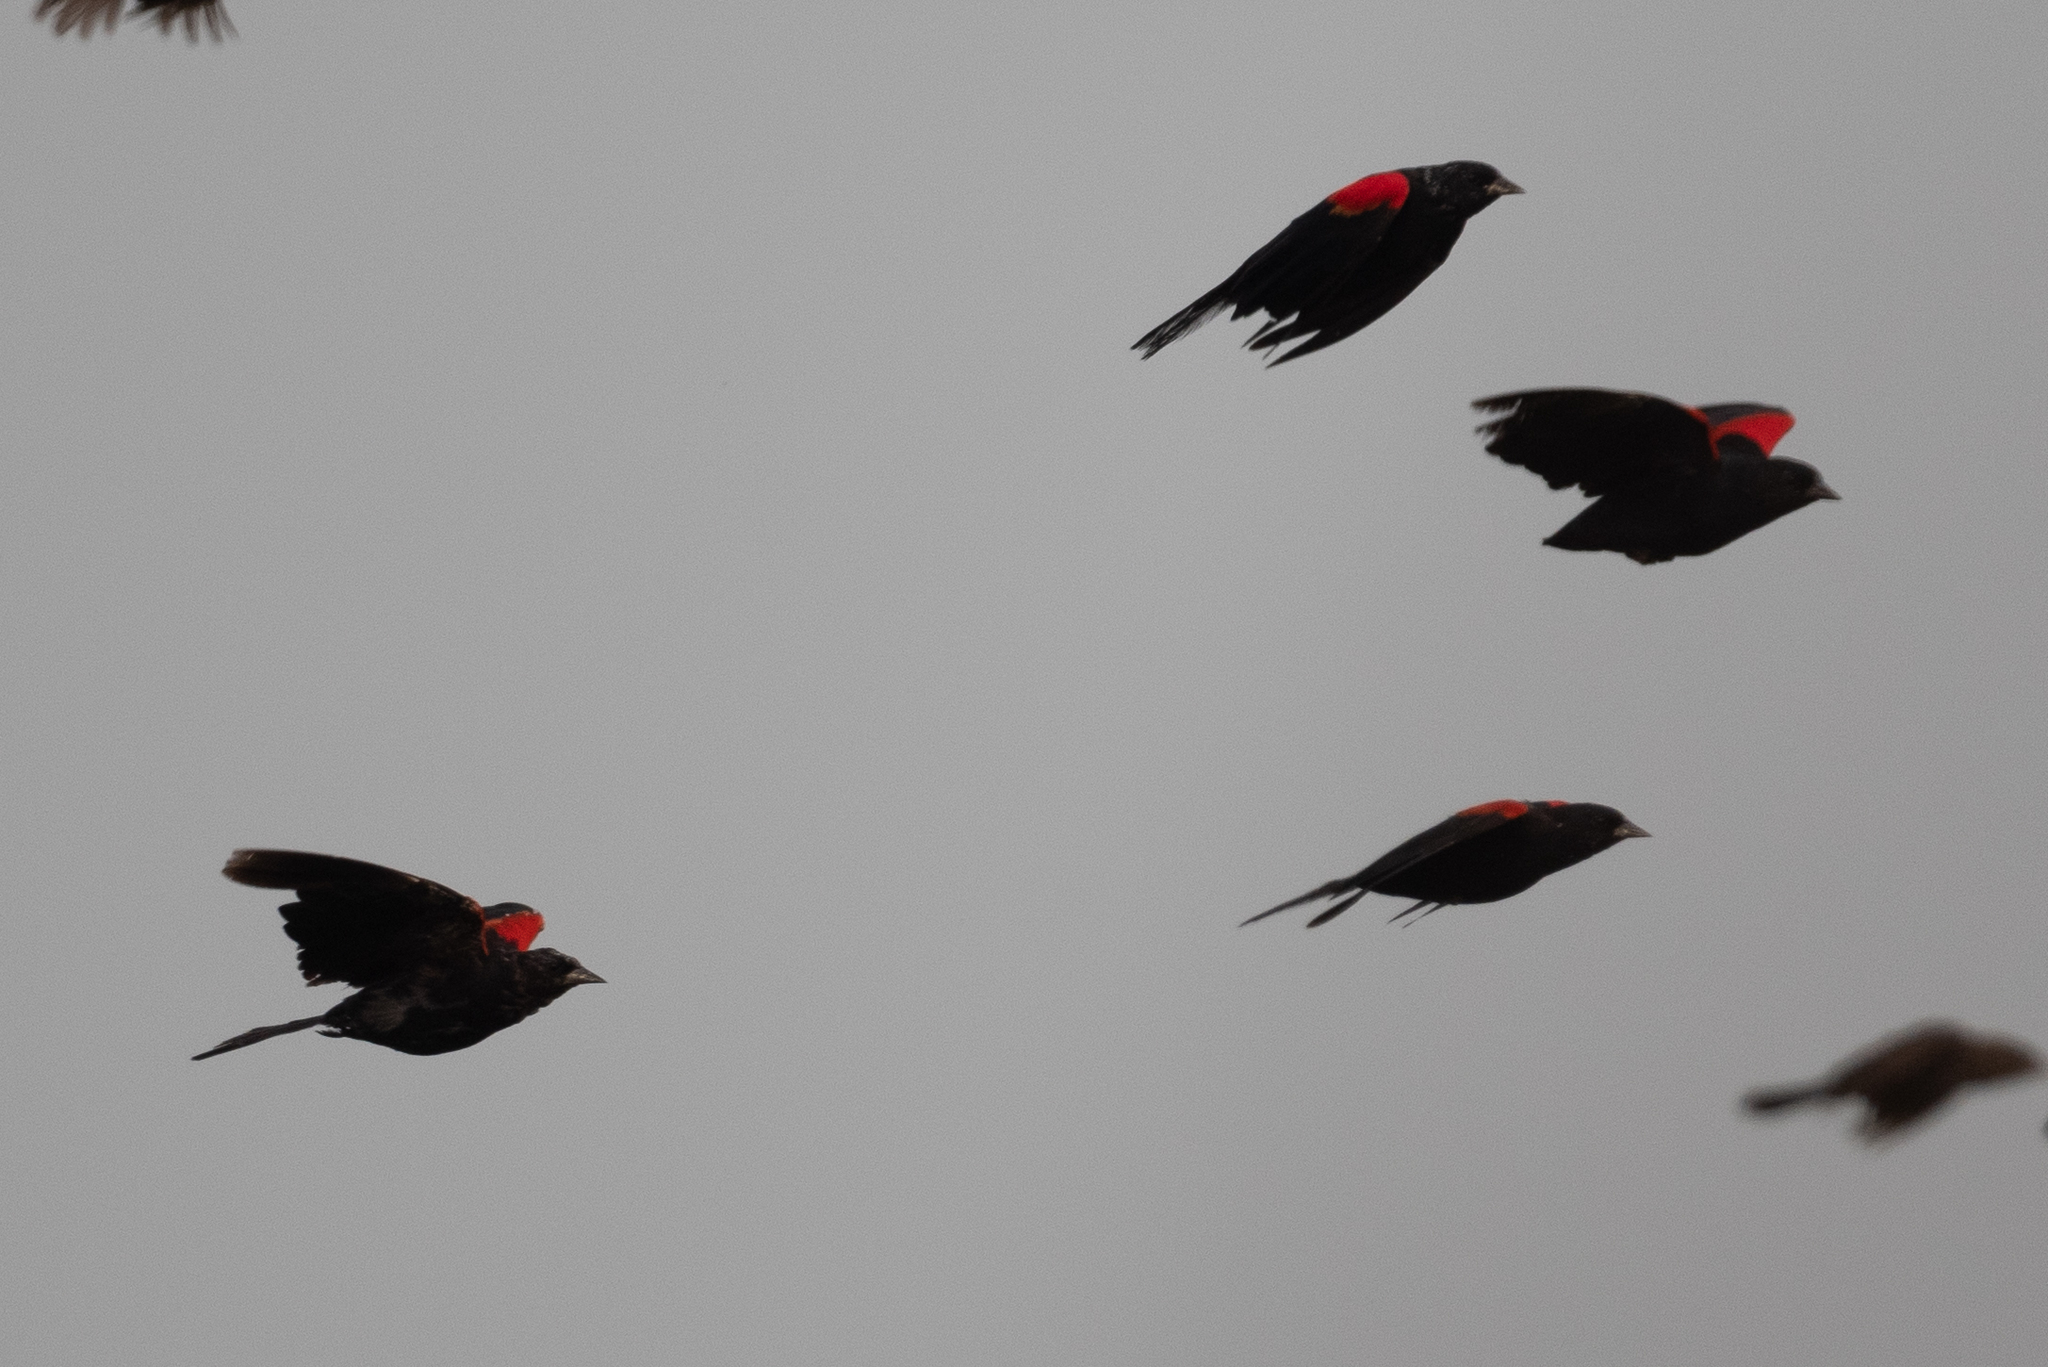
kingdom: Animalia
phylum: Chordata
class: Aves
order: Passeriformes
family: Icteridae
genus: Agelaius
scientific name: Agelaius tricolor
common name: Tricolored blackbird
